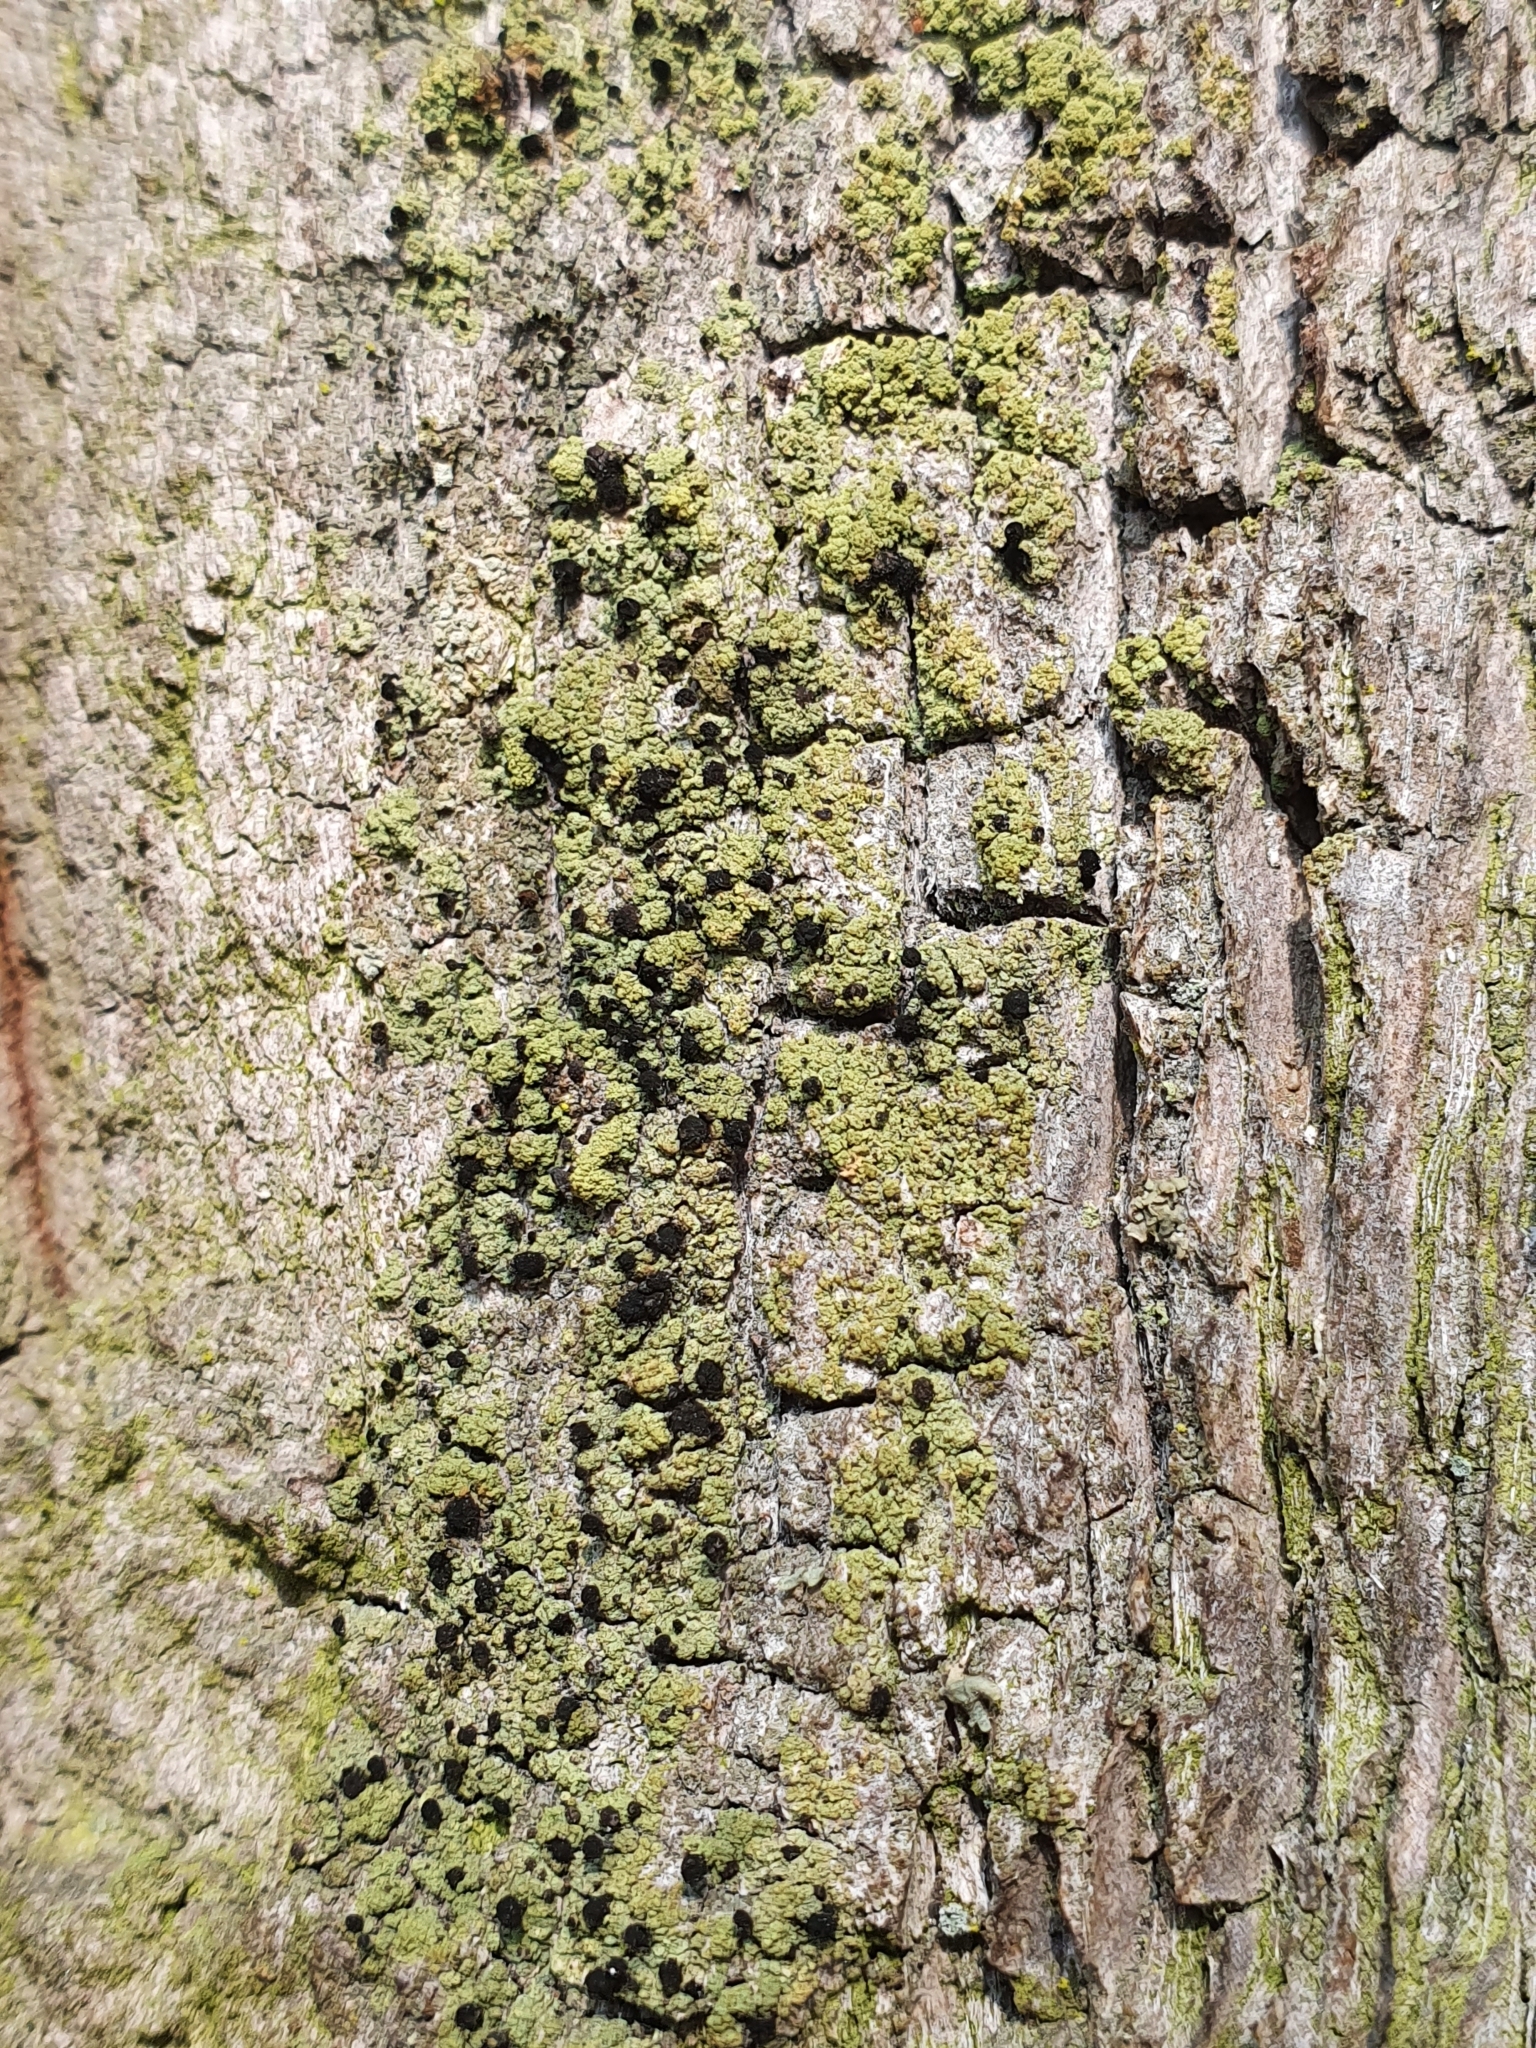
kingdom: Fungi
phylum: Ascomycota
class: Lecanoromycetes
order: Caliciales
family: Caliciaceae
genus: Calicium
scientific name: Calicium viride
